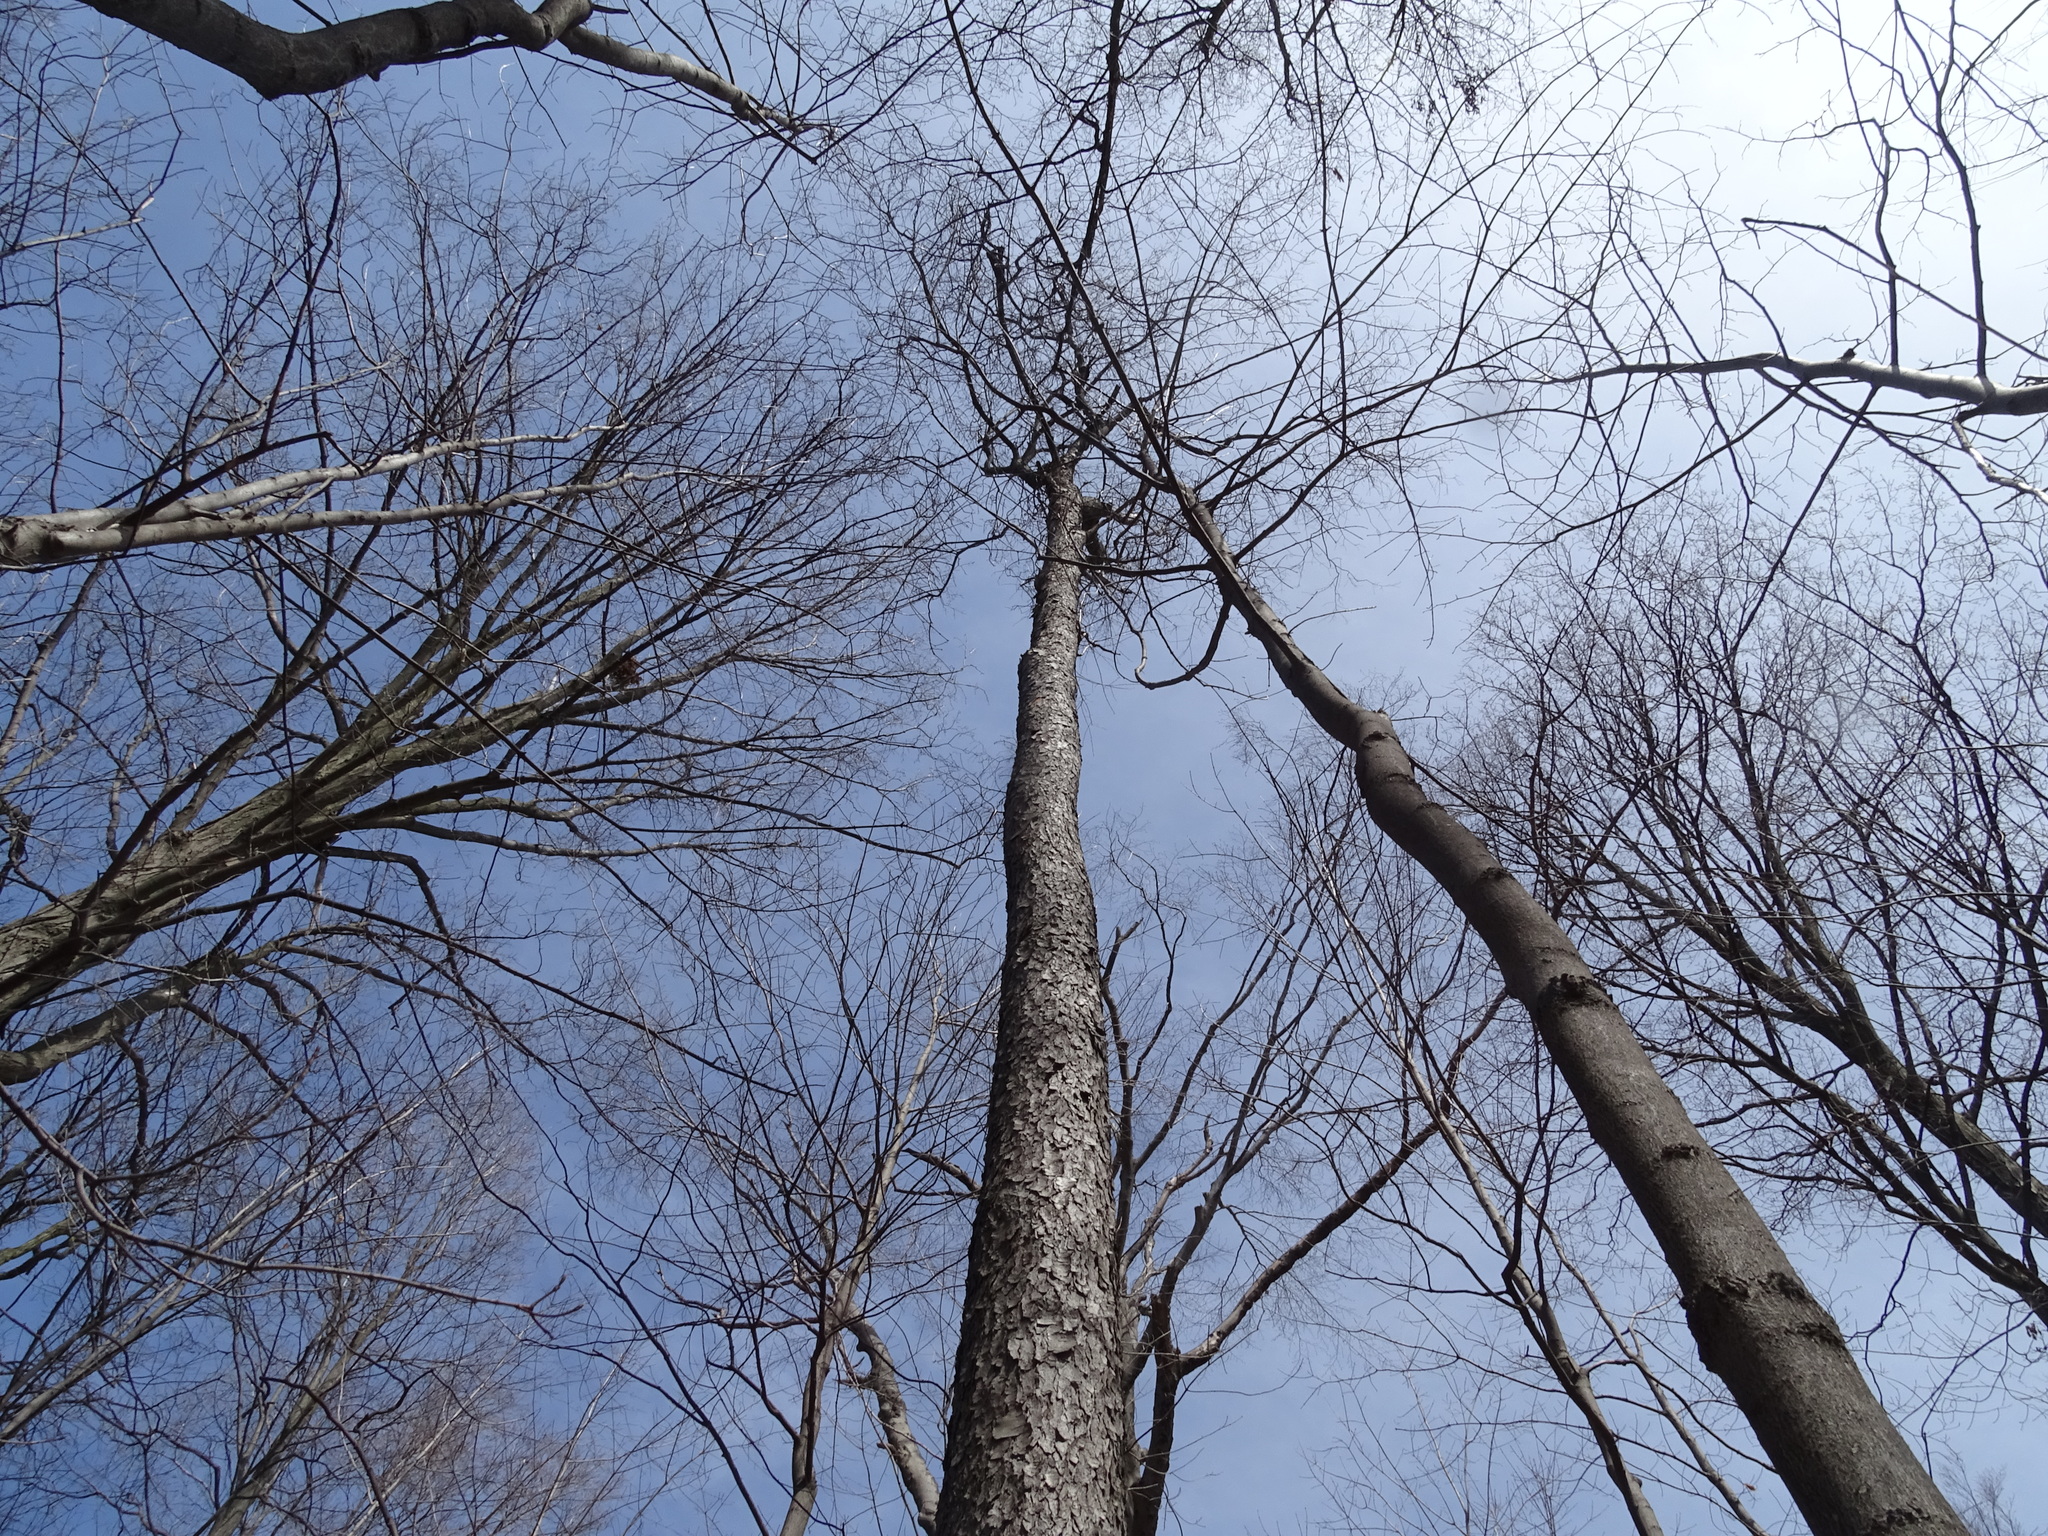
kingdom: Plantae
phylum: Tracheophyta
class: Magnoliopsida
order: Rosales
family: Rosaceae
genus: Prunus
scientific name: Prunus serotina
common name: Black cherry
